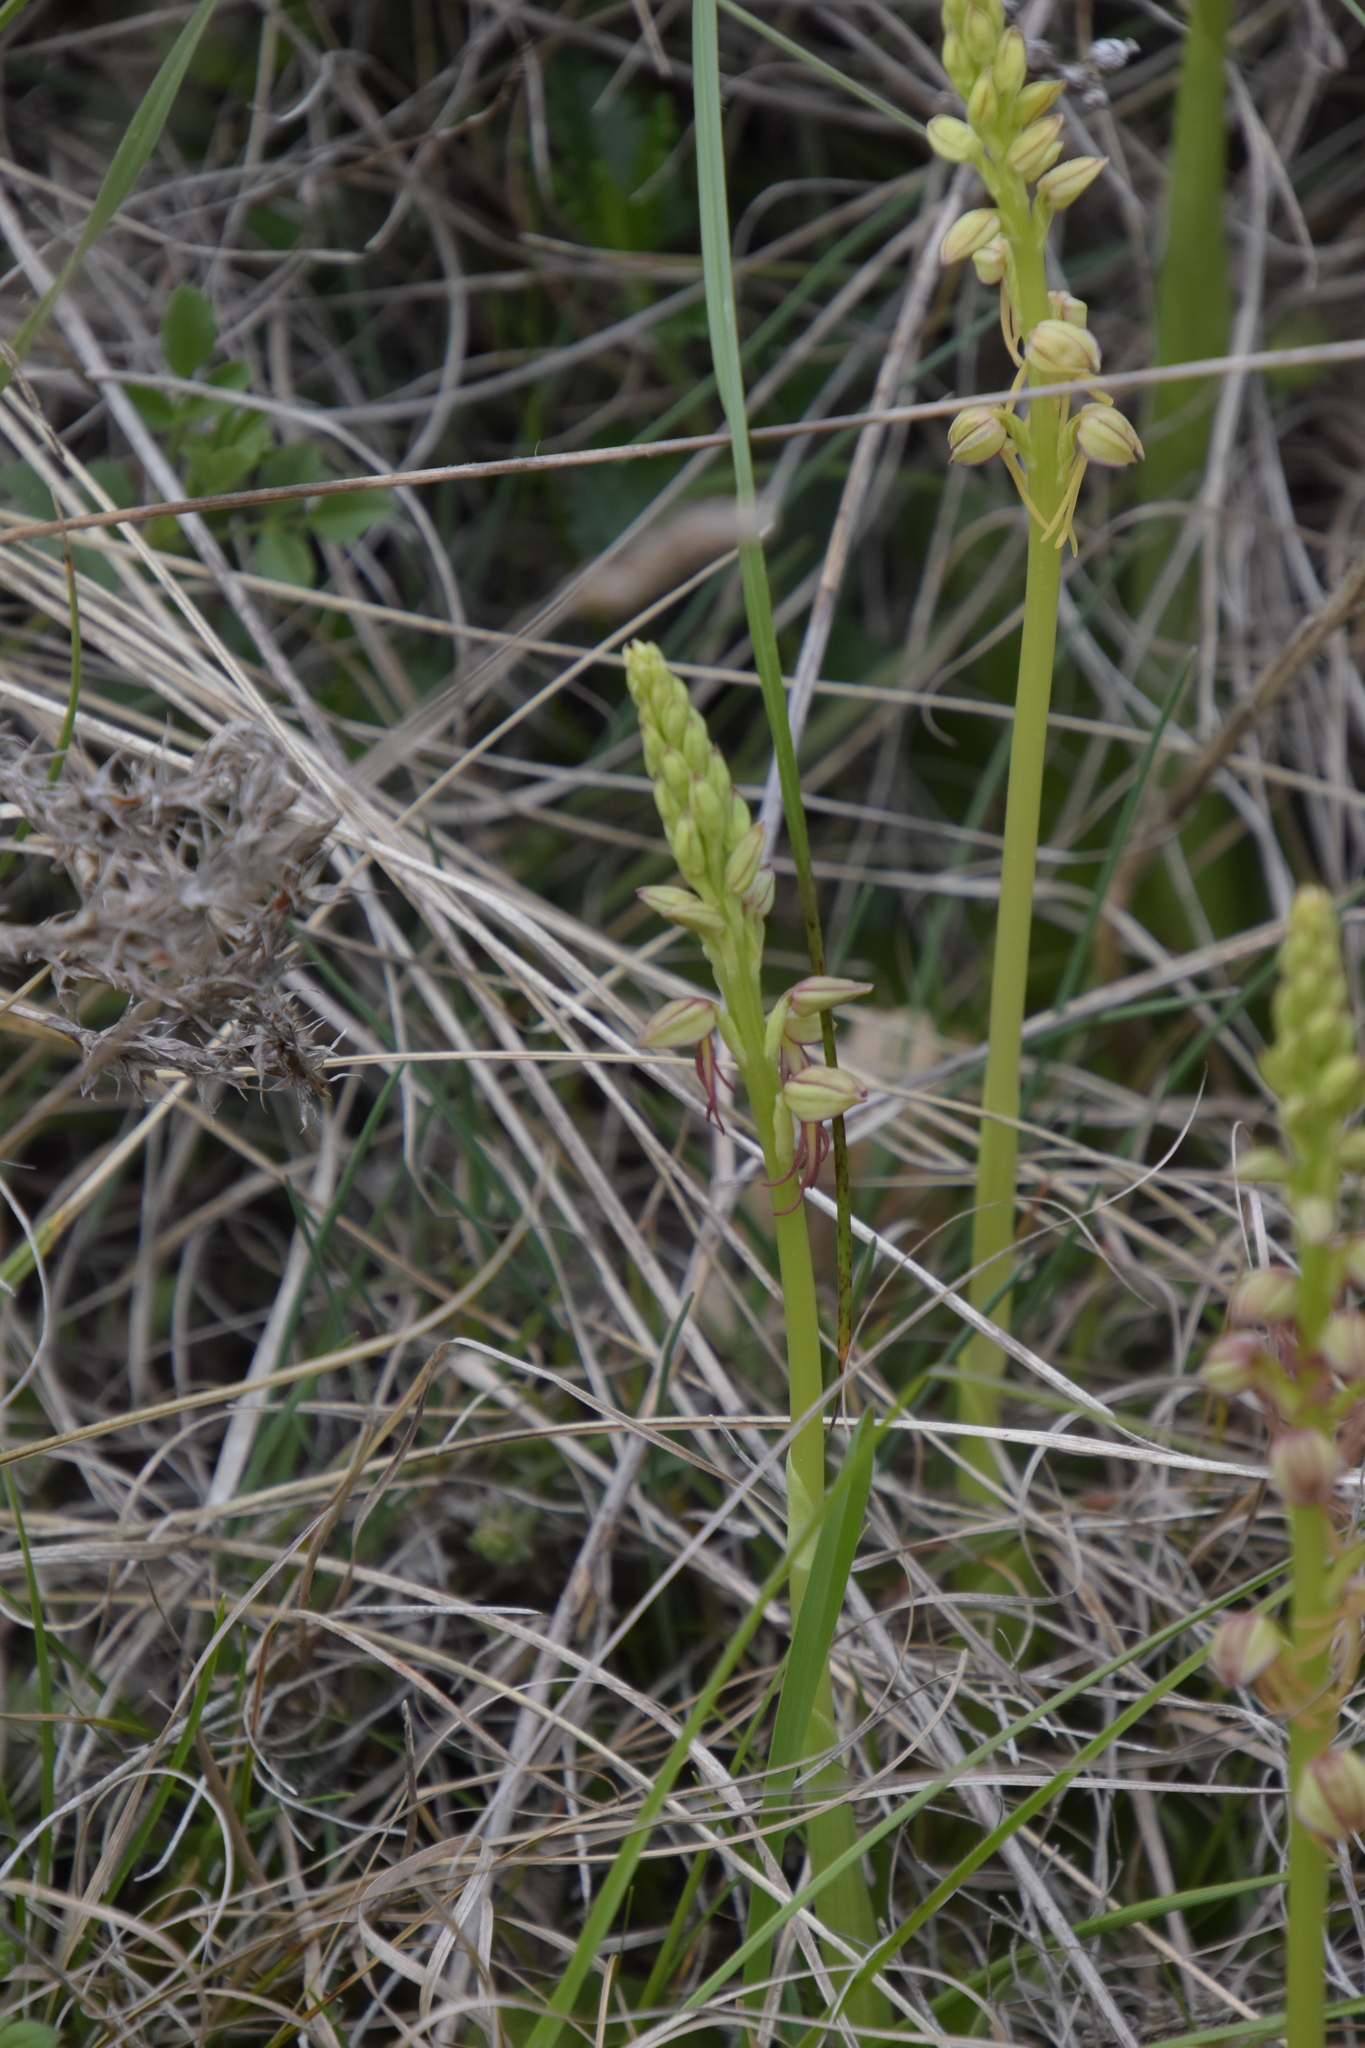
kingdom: Plantae
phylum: Tracheophyta
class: Liliopsida
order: Asparagales
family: Orchidaceae
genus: Orchis
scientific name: Orchis anthropophora
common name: Man orchid
